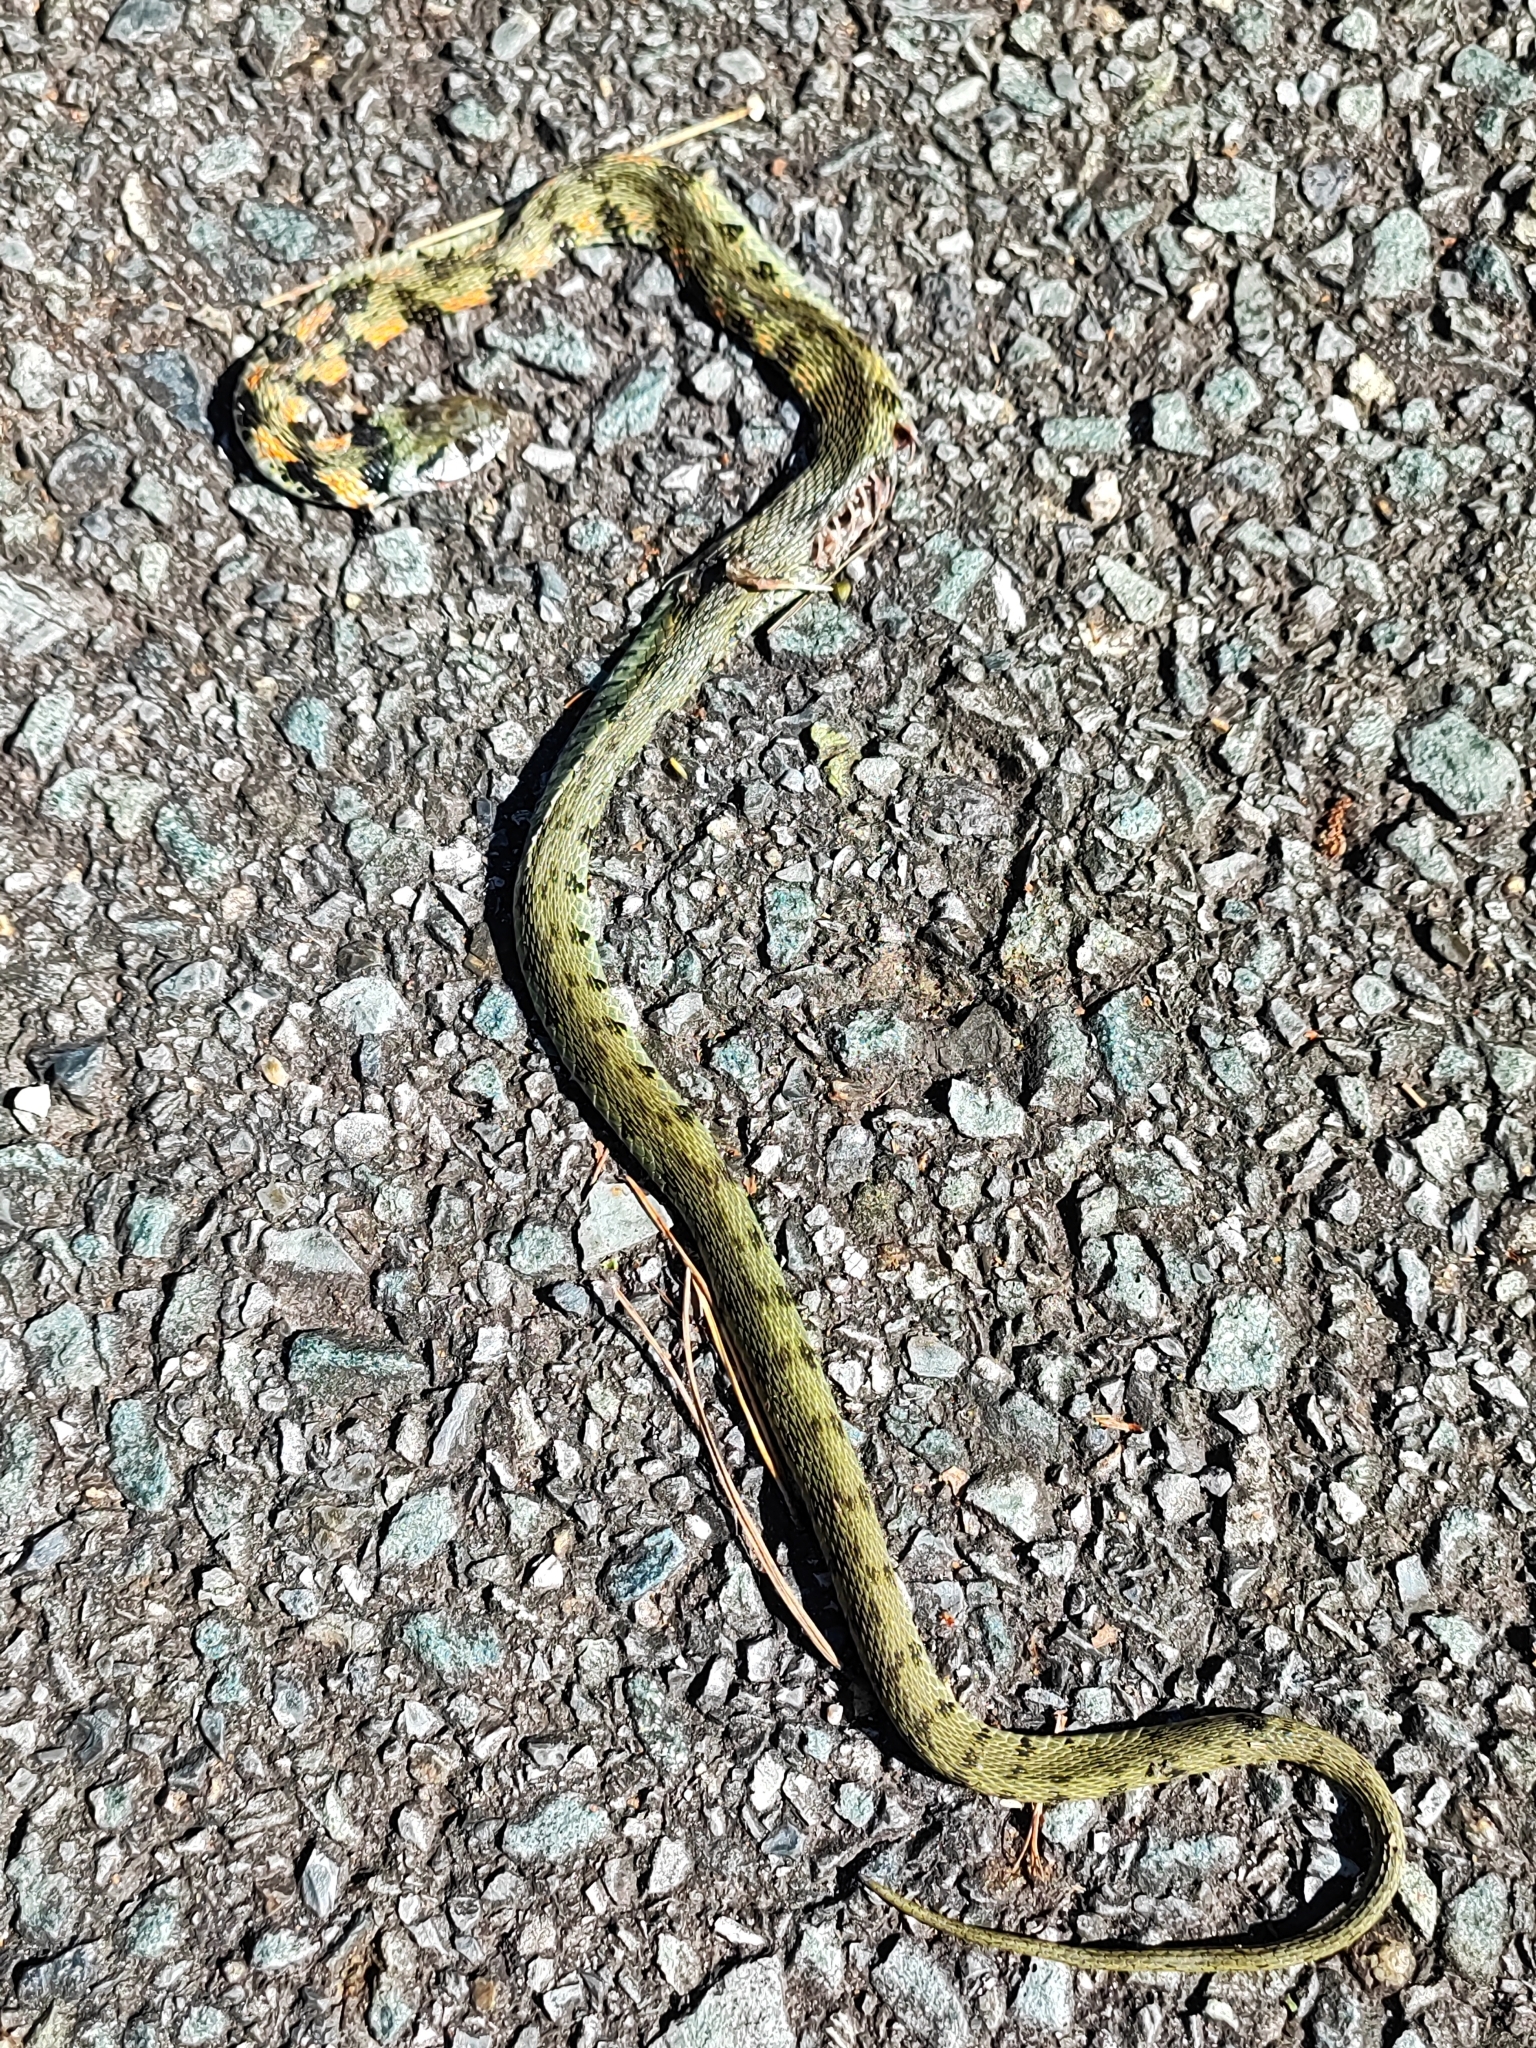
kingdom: Animalia
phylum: Chordata
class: Squamata
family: Colubridae
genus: Rhabdophis
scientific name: Rhabdophis tigrinus
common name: Tiger keelback
